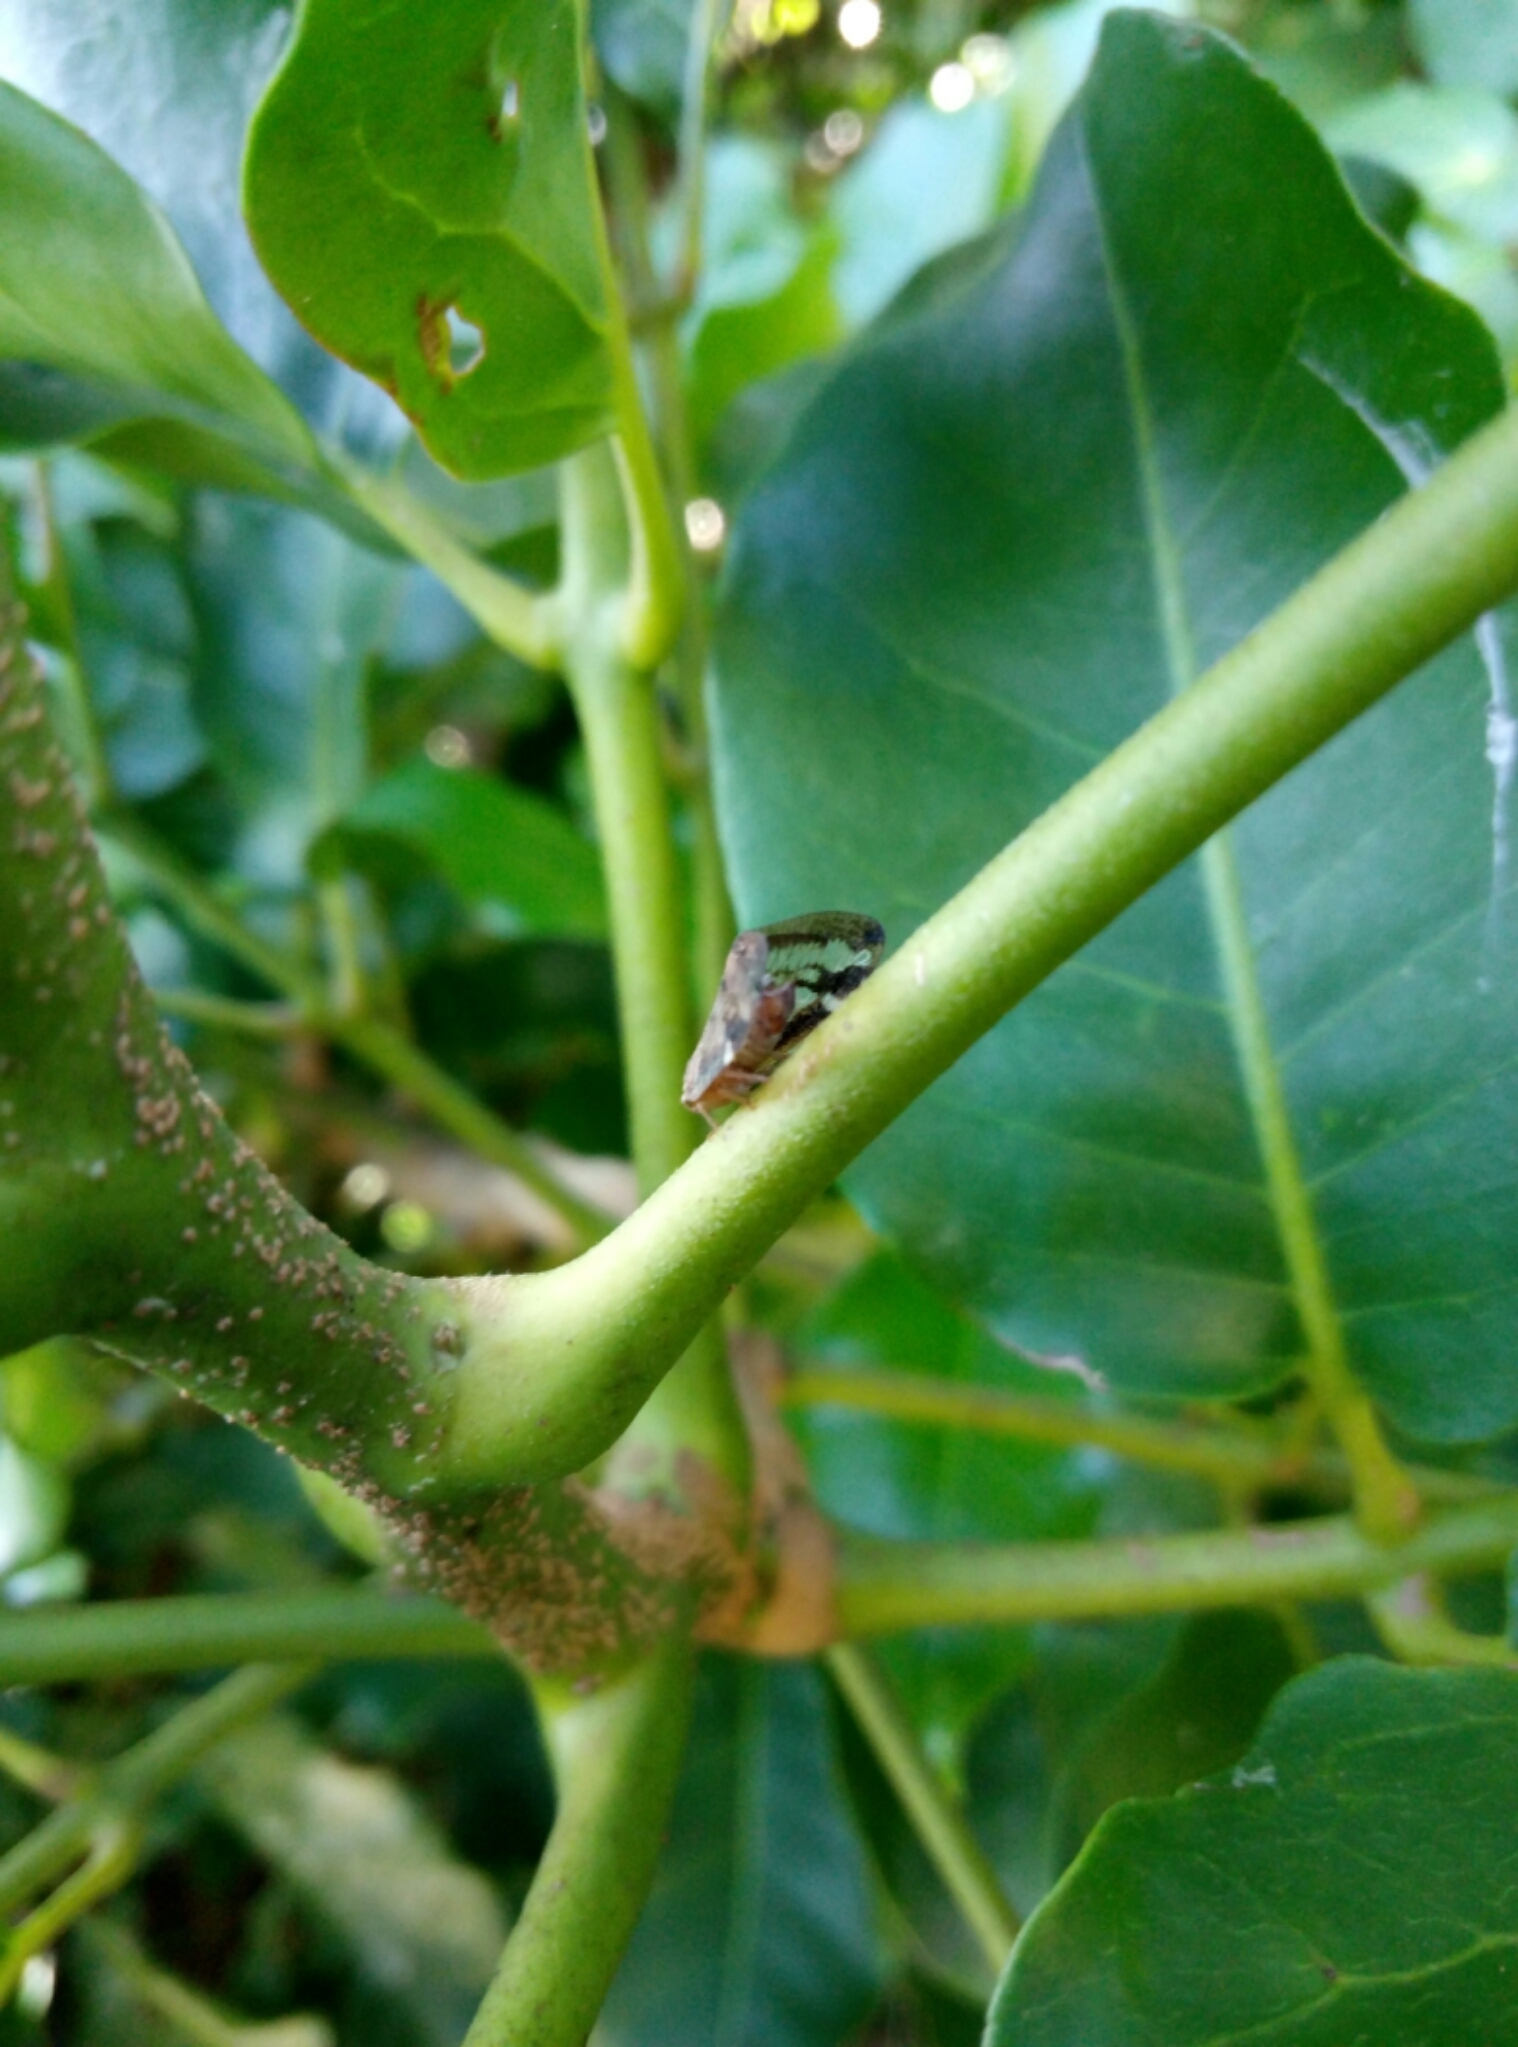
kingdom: Animalia
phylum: Arthropoda
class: Insecta
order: Hemiptera
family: Ricaniidae
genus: Scolypopa
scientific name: Scolypopa australis
